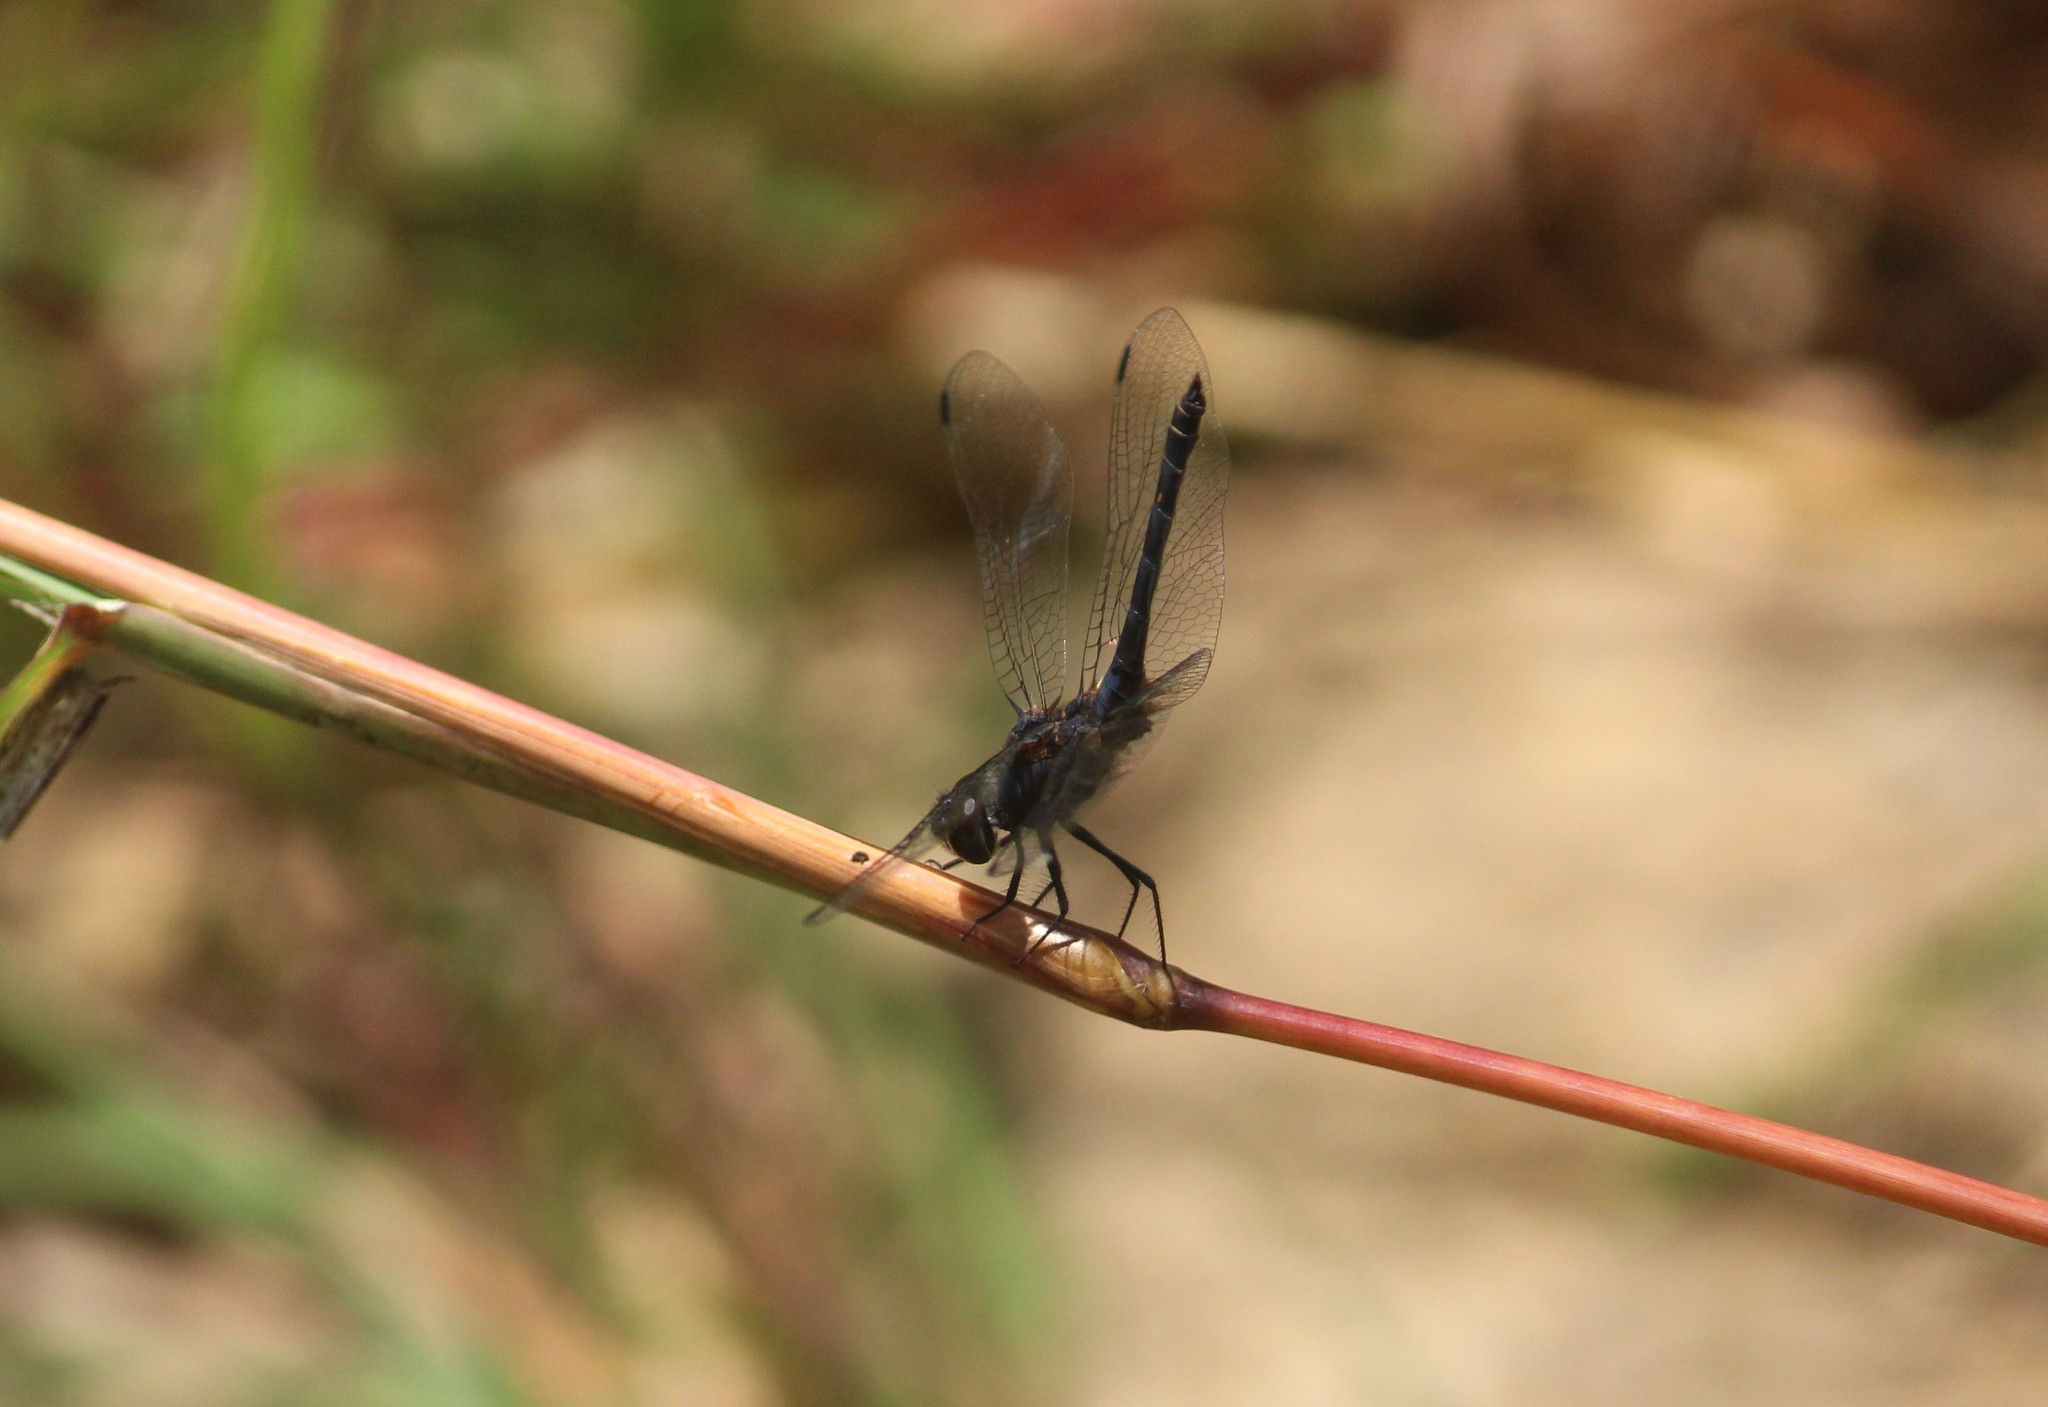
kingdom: Animalia
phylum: Arthropoda
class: Insecta
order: Odonata
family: Libellulidae
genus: Trithemis
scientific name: Trithemis festiva
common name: Indigo dropwing
